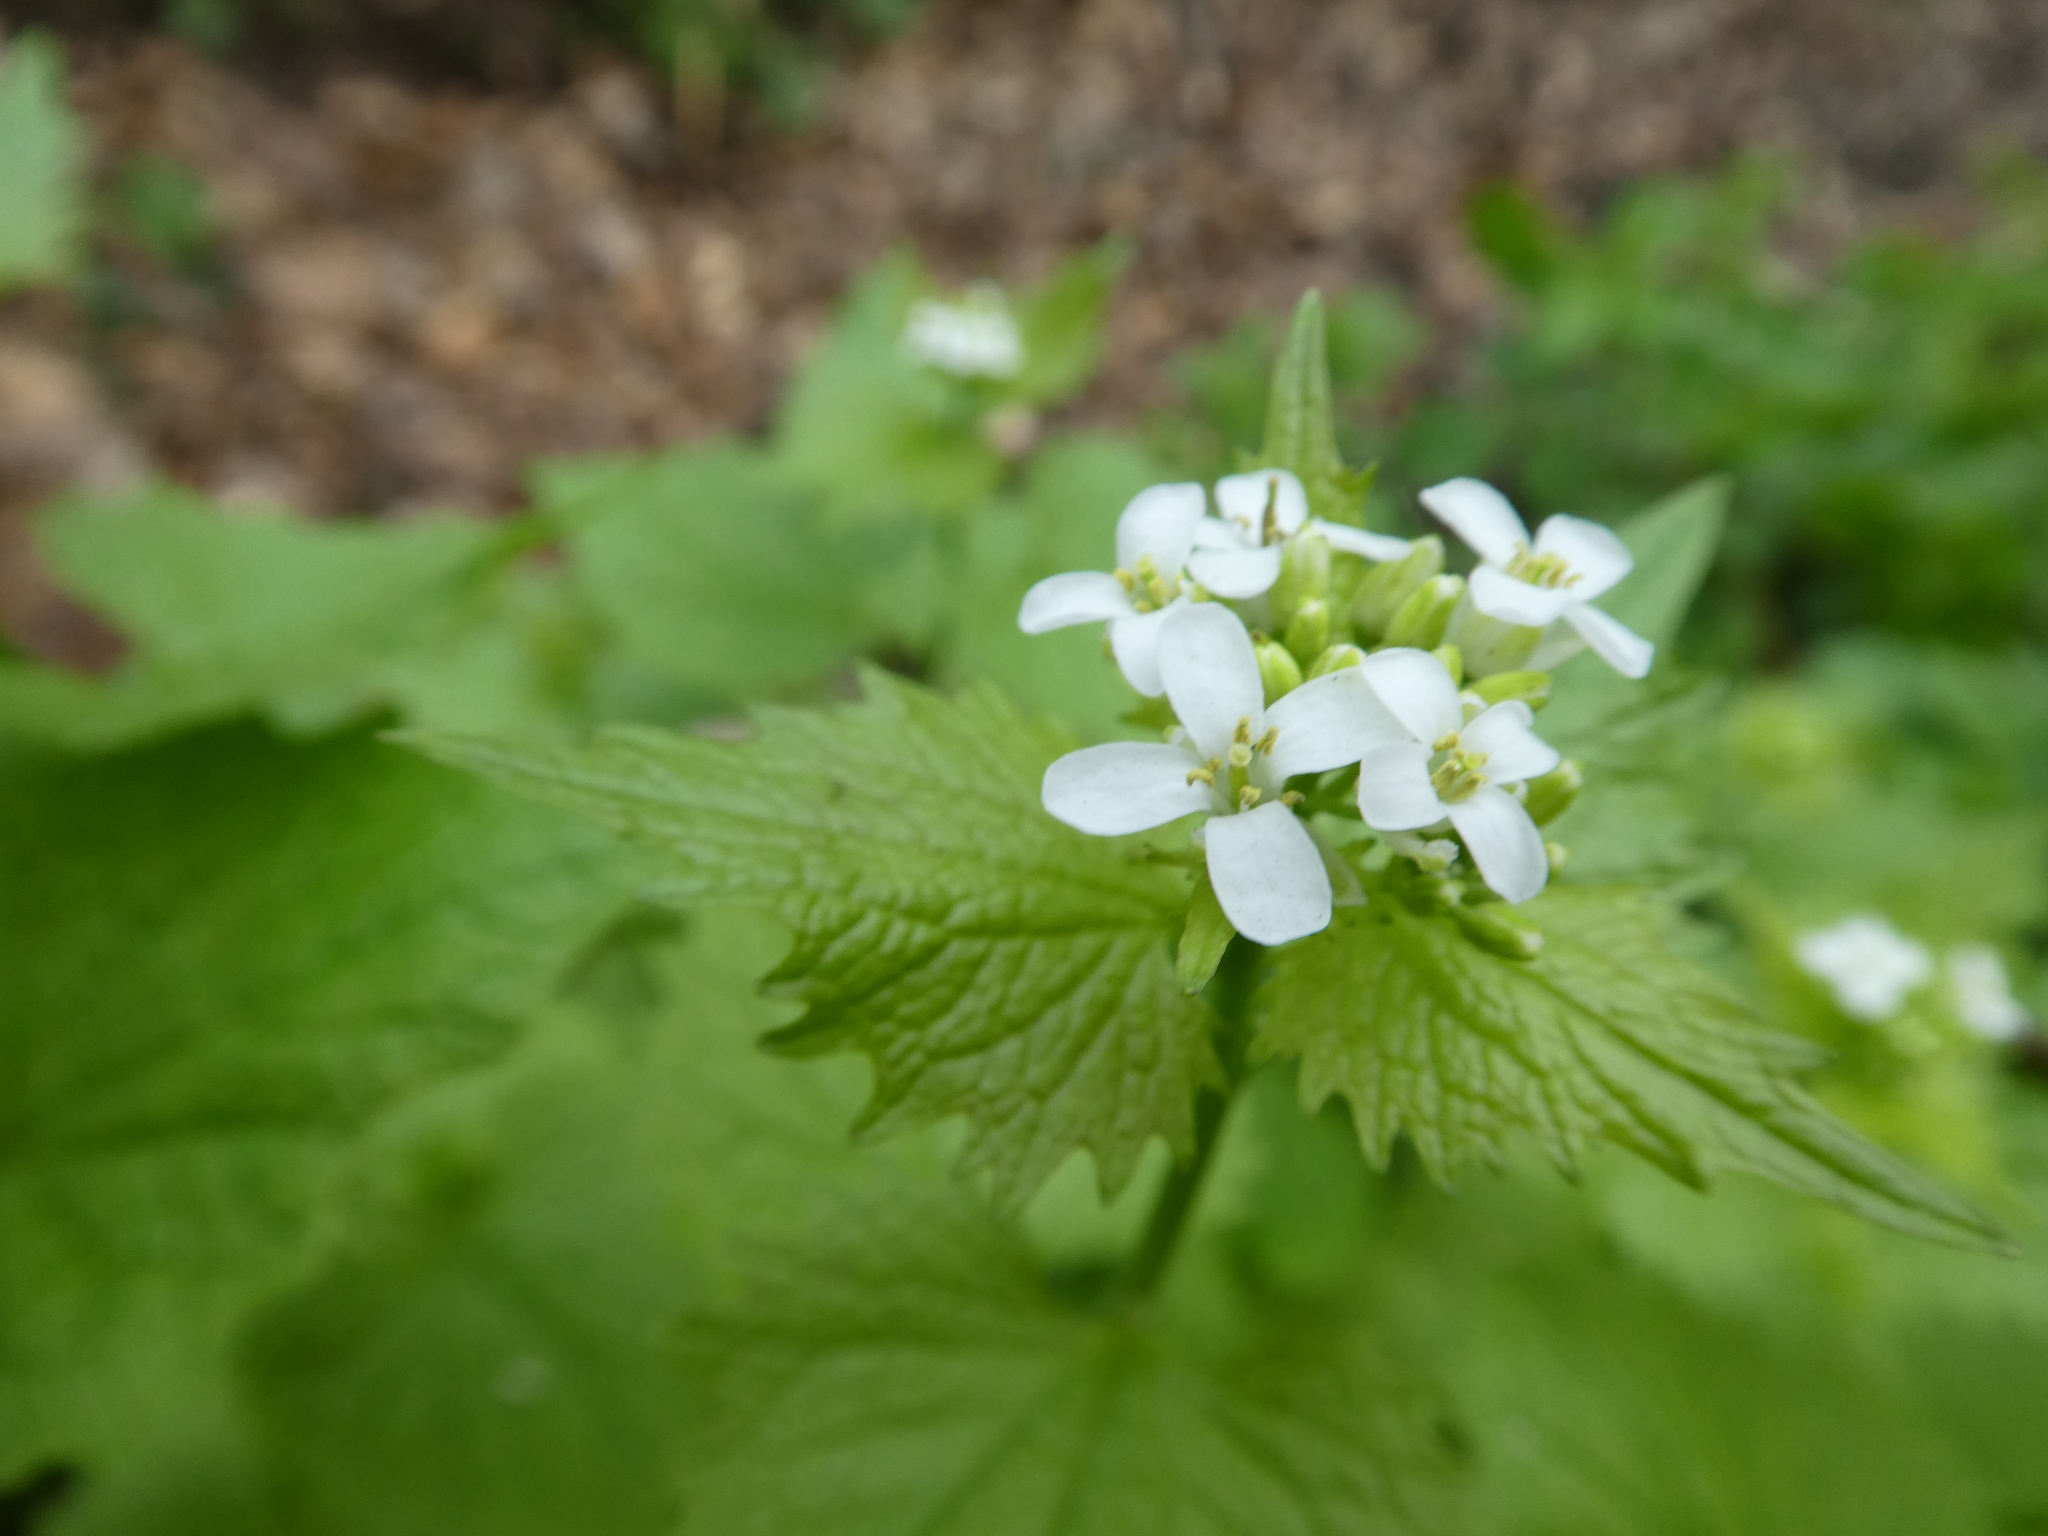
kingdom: Plantae
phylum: Tracheophyta
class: Magnoliopsida
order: Brassicales
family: Brassicaceae
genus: Alliaria
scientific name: Alliaria petiolata
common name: Garlic mustard
